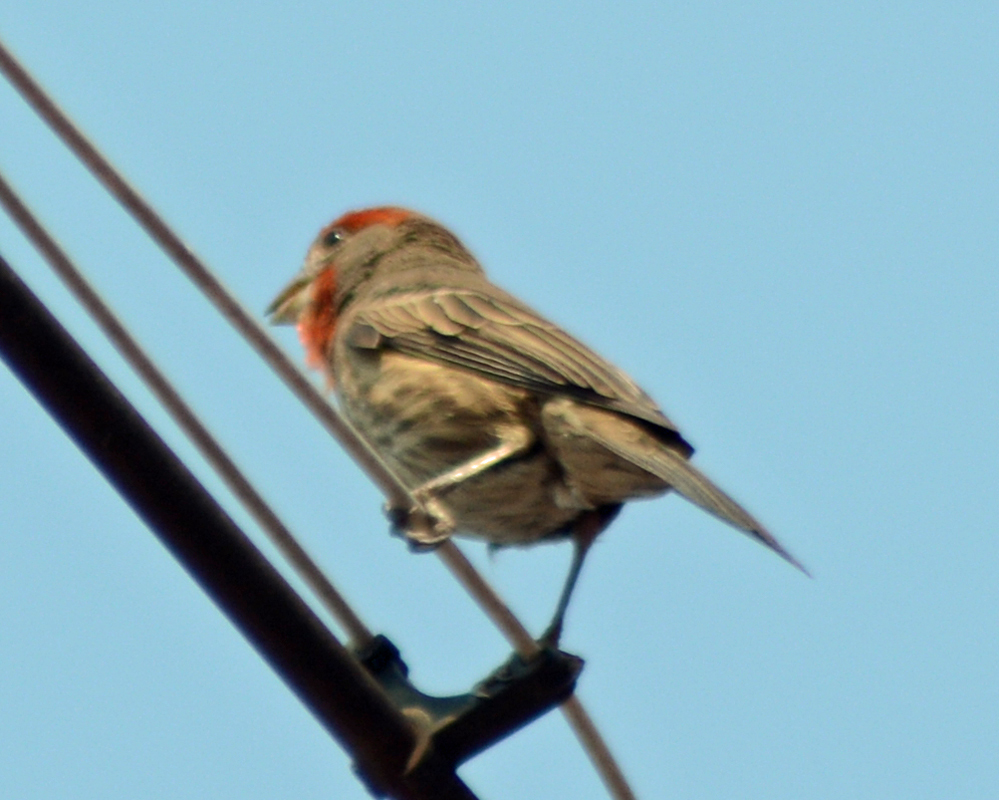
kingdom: Animalia
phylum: Chordata
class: Aves
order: Passeriformes
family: Fringillidae
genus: Haemorhous
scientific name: Haemorhous mexicanus
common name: House finch
